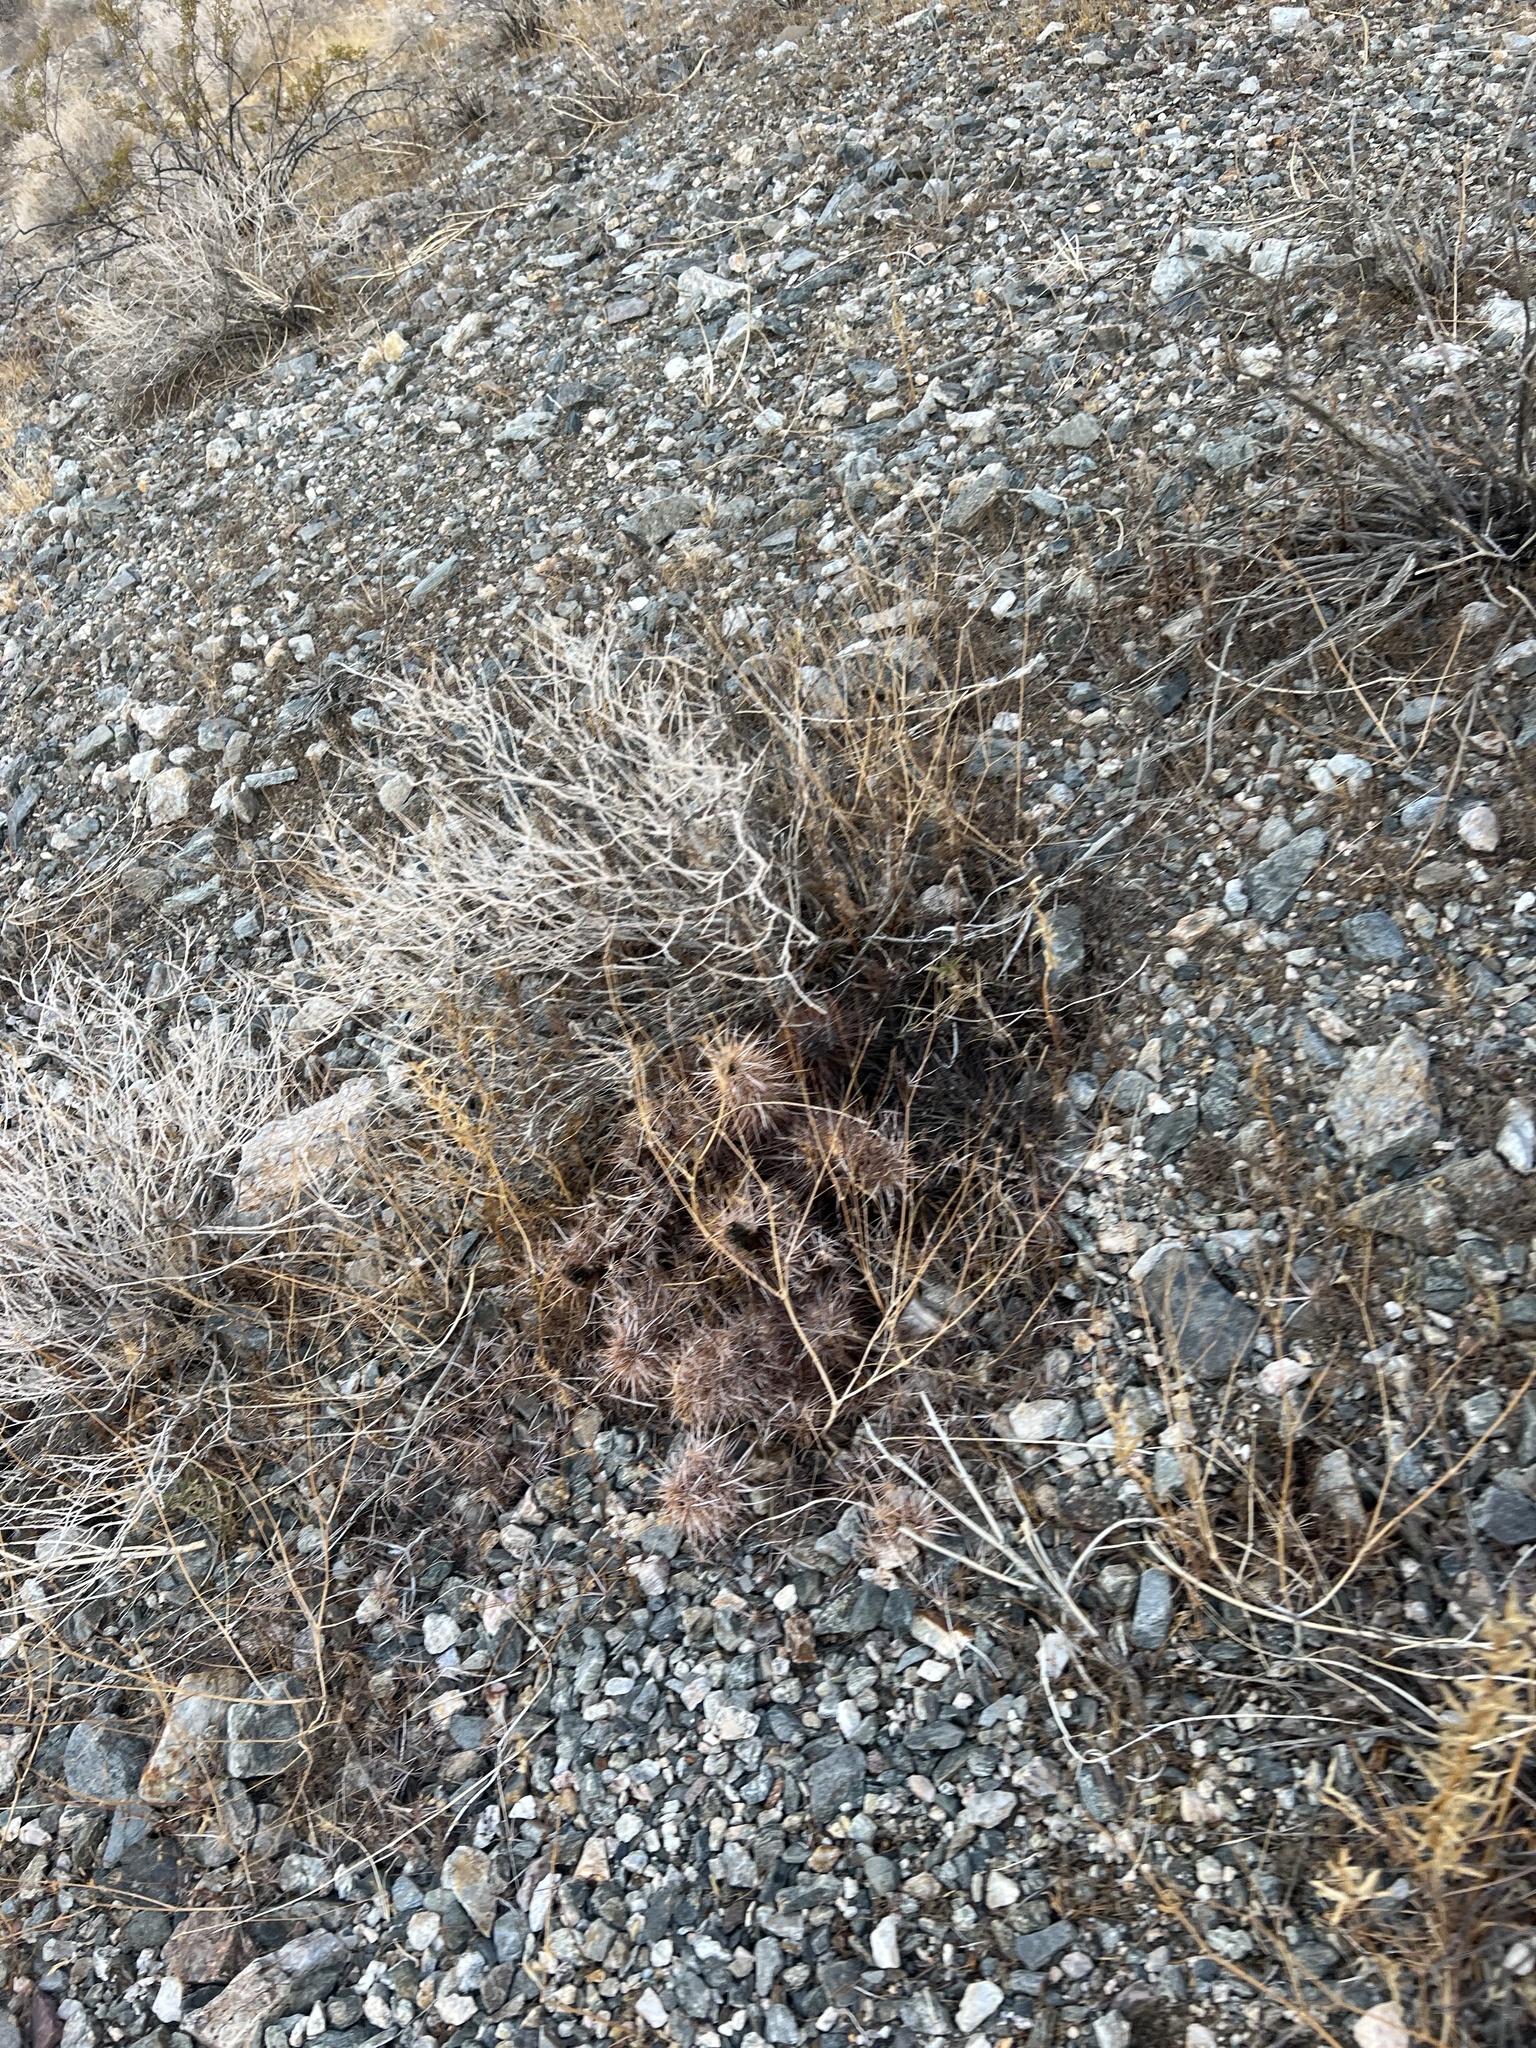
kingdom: Plantae
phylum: Tracheophyta
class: Magnoliopsida
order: Caryophyllales
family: Cactaceae
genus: Echinocereus
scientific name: Echinocereus engelmannii
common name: Engelmann's hedgehog cactus
